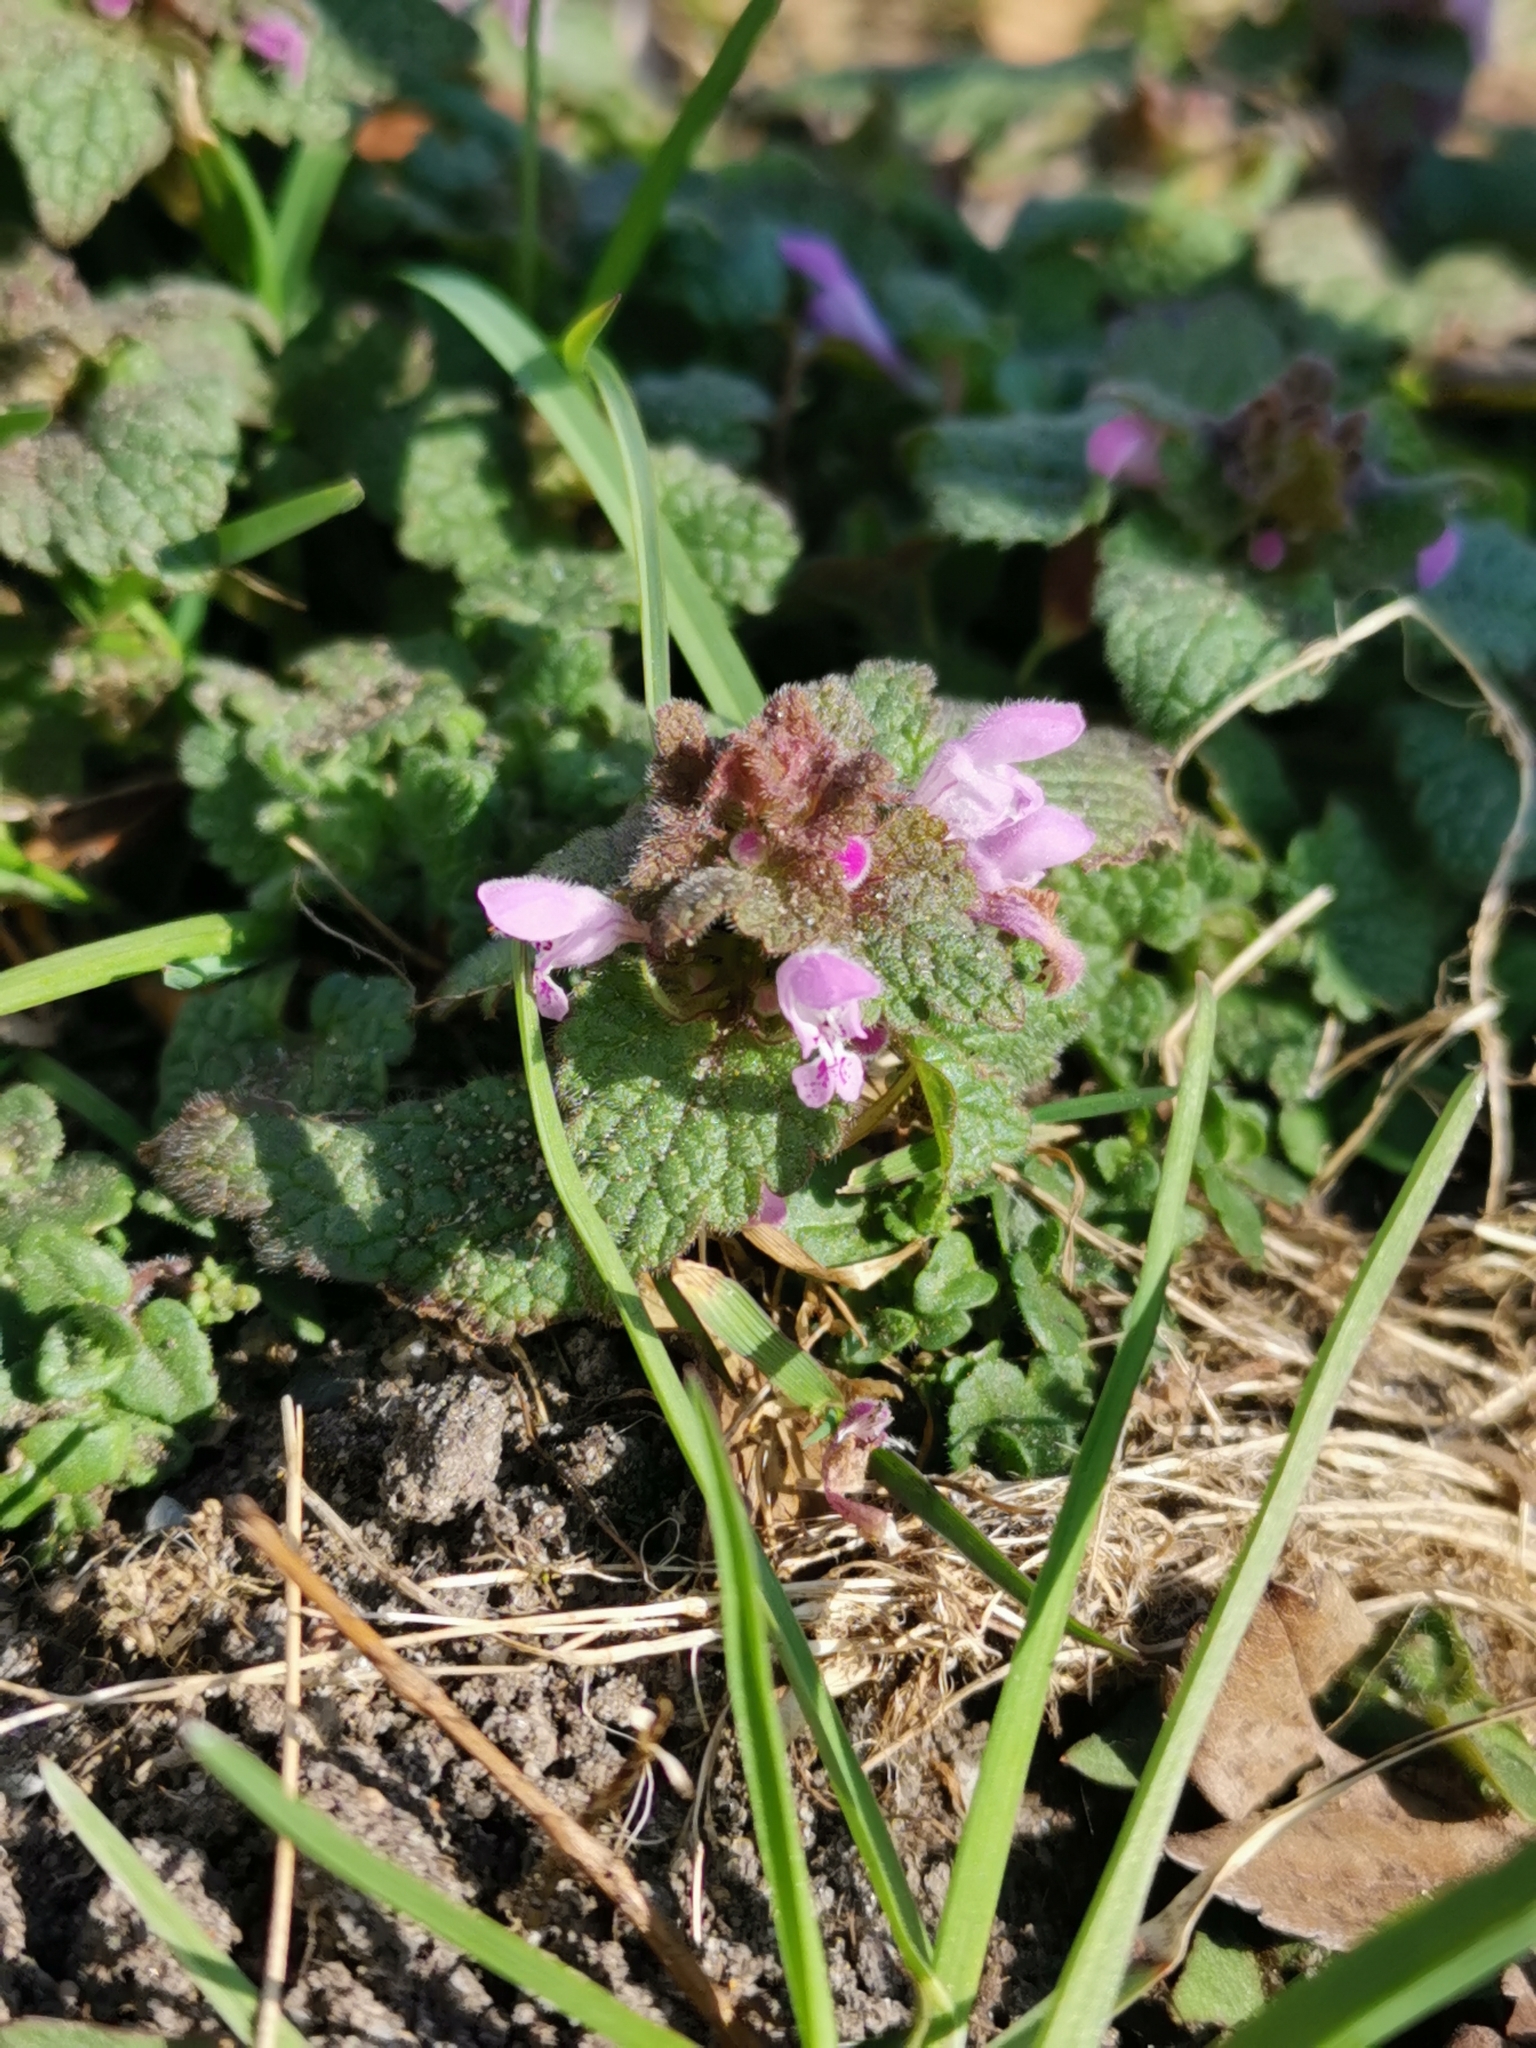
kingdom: Plantae
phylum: Tracheophyta
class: Magnoliopsida
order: Lamiales
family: Lamiaceae
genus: Lamium
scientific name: Lamium purpureum
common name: Red dead-nettle
